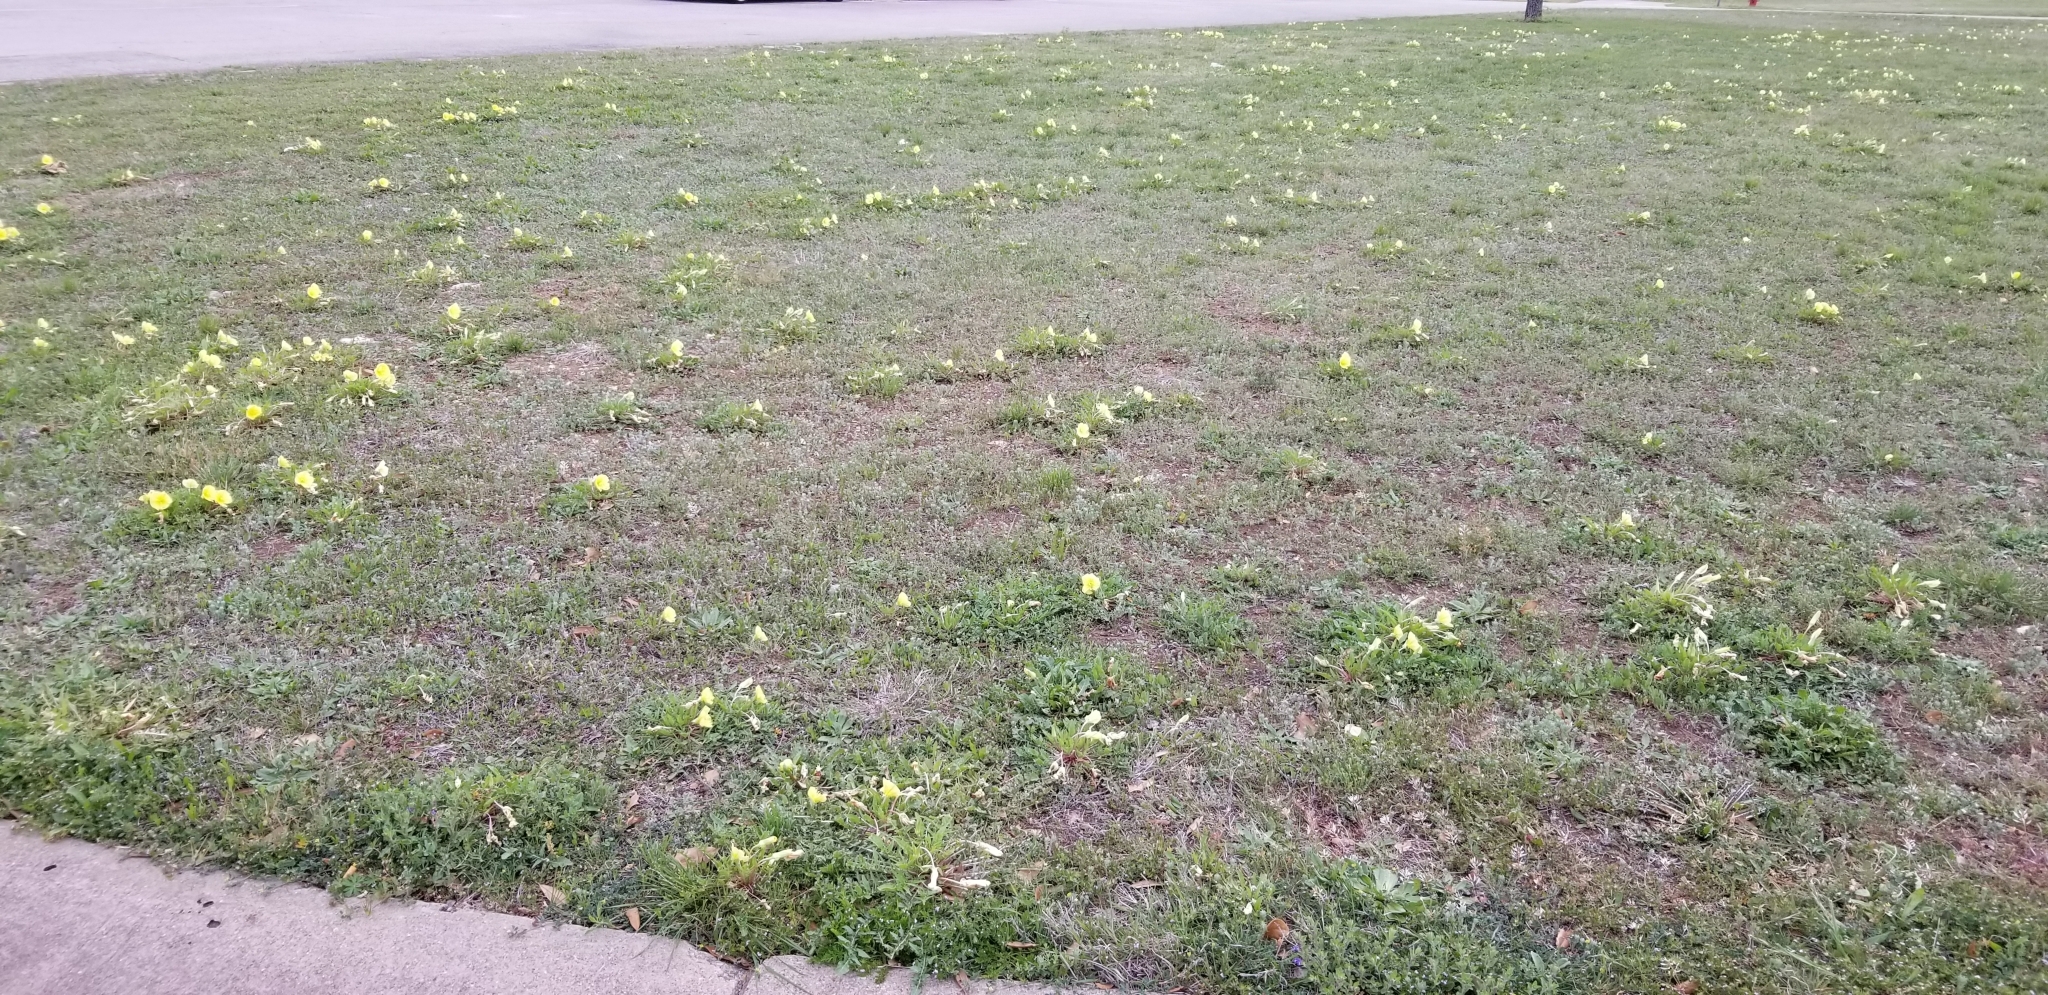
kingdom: Plantae
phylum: Tracheophyta
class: Magnoliopsida
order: Myrtales
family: Onagraceae
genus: Oenothera
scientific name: Oenothera triloba
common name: Sessile evening-primrose
